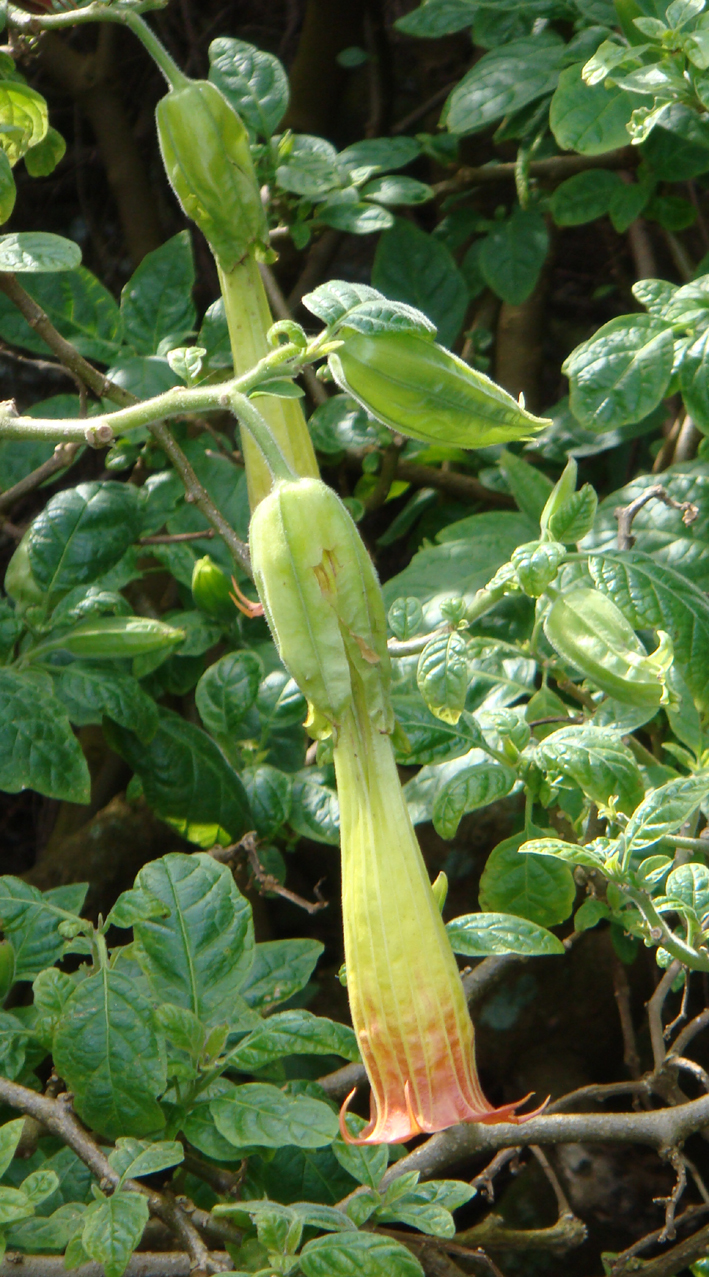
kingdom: Plantae
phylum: Tracheophyta
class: Magnoliopsida
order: Solanales
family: Solanaceae
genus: Brugmansia
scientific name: Brugmansia sanguinea
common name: Red floripontio
